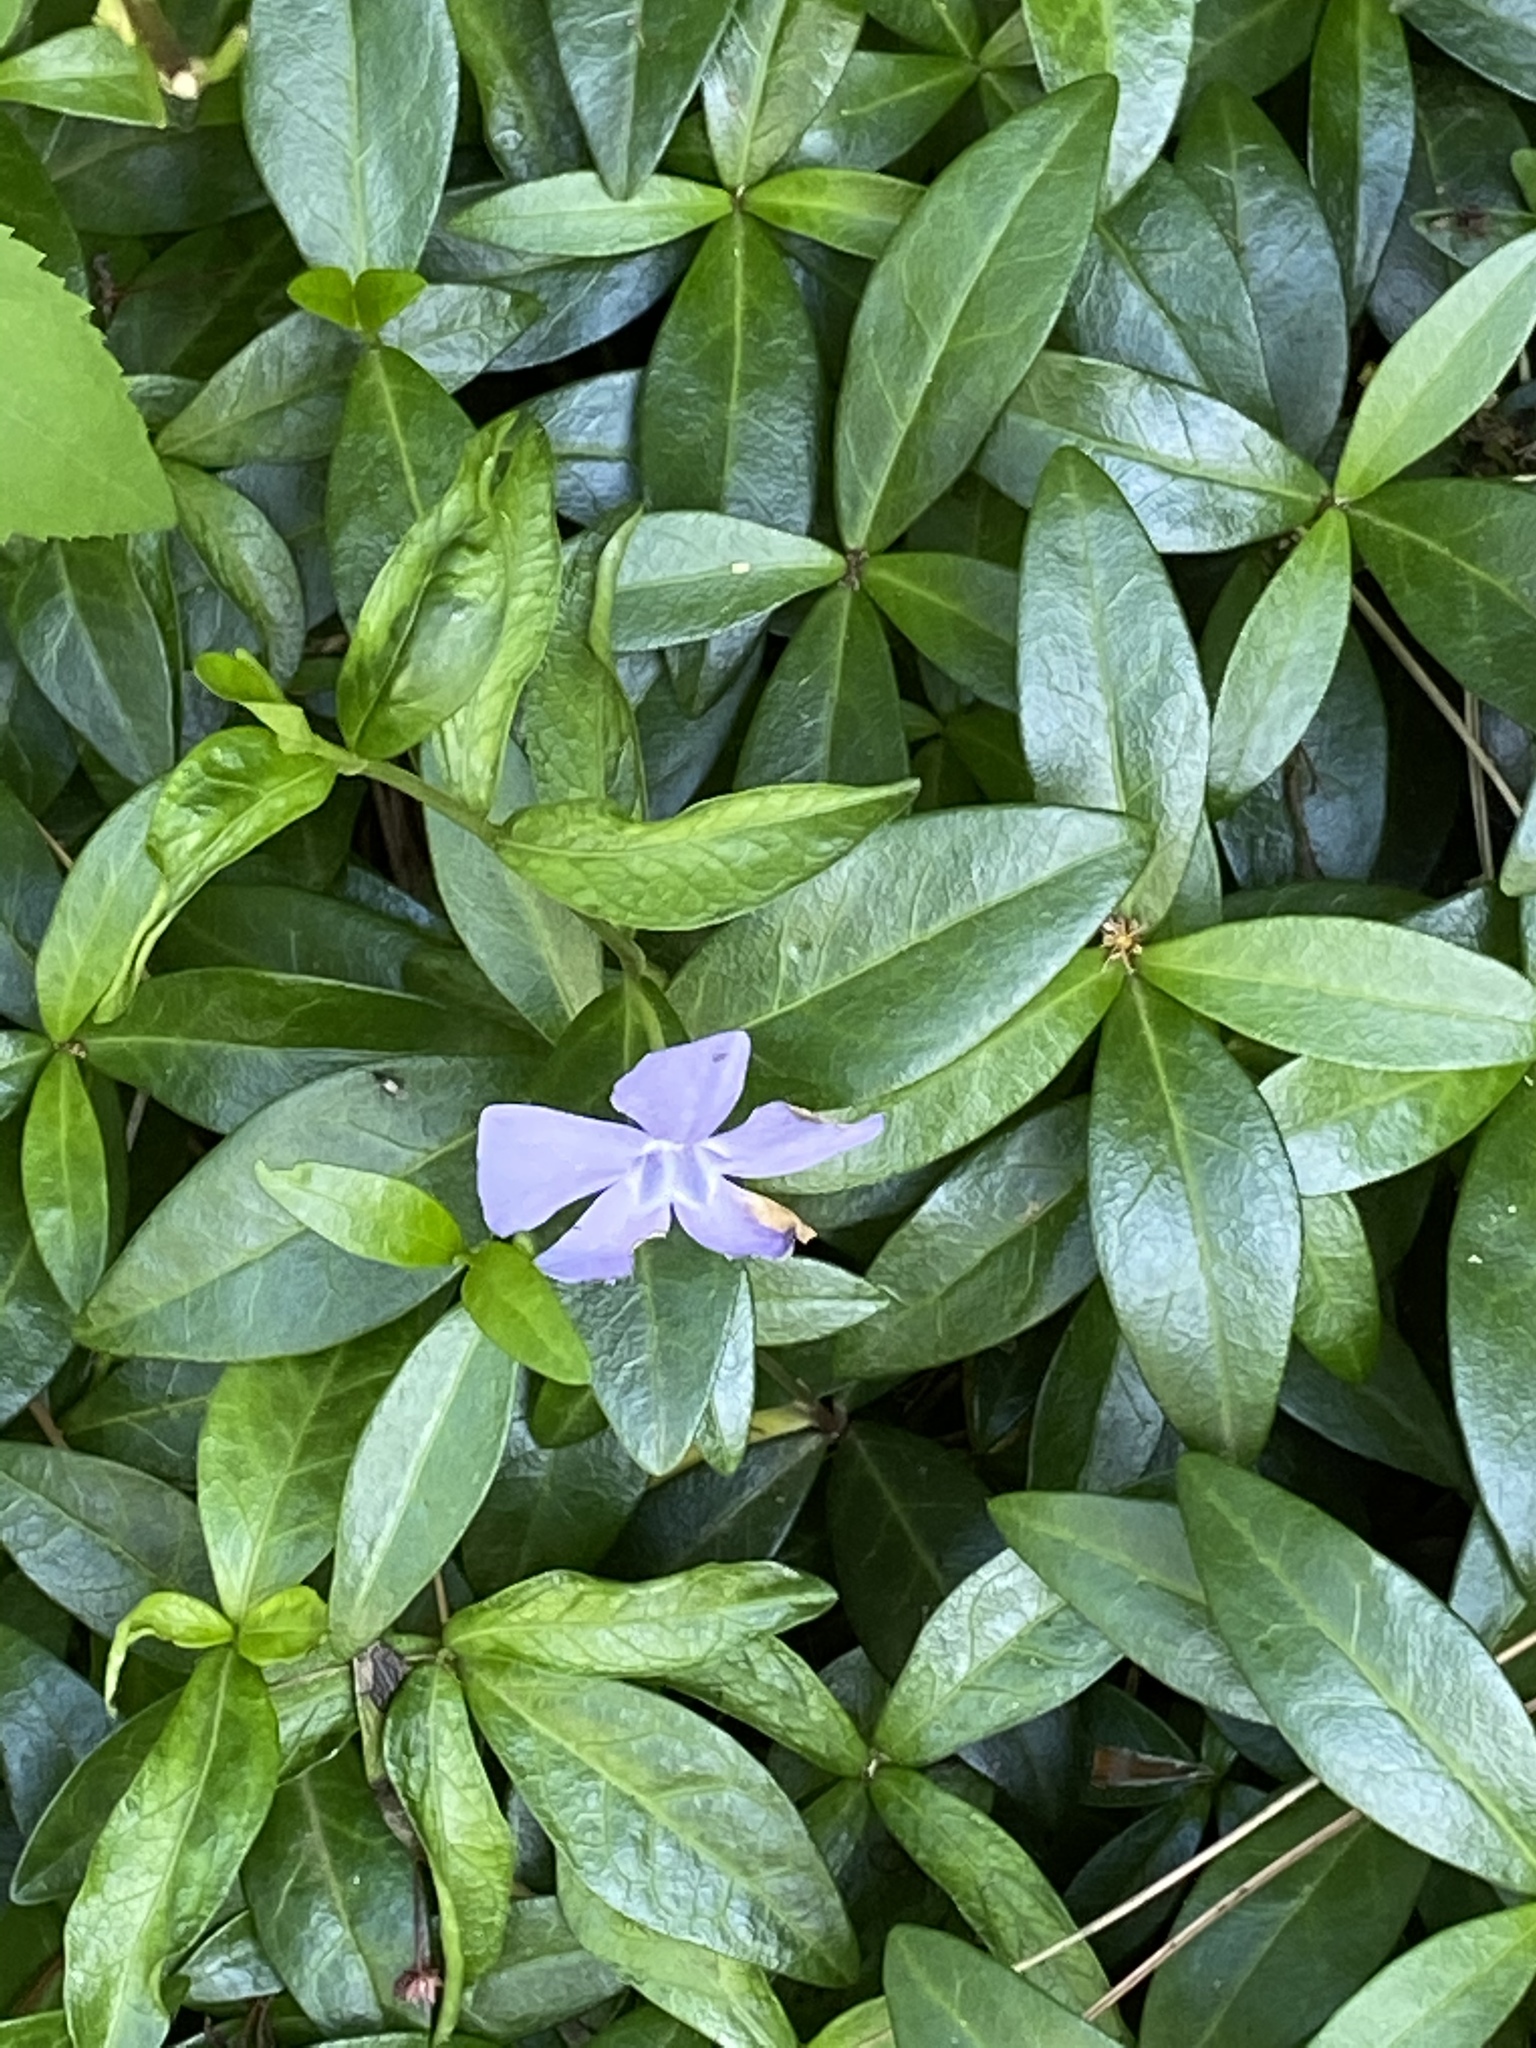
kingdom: Plantae
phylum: Tracheophyta
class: Magnoliopsida
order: Gentianales
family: Apocynaceae
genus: Vinca
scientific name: Vinca minor
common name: Lesser periwinkle
